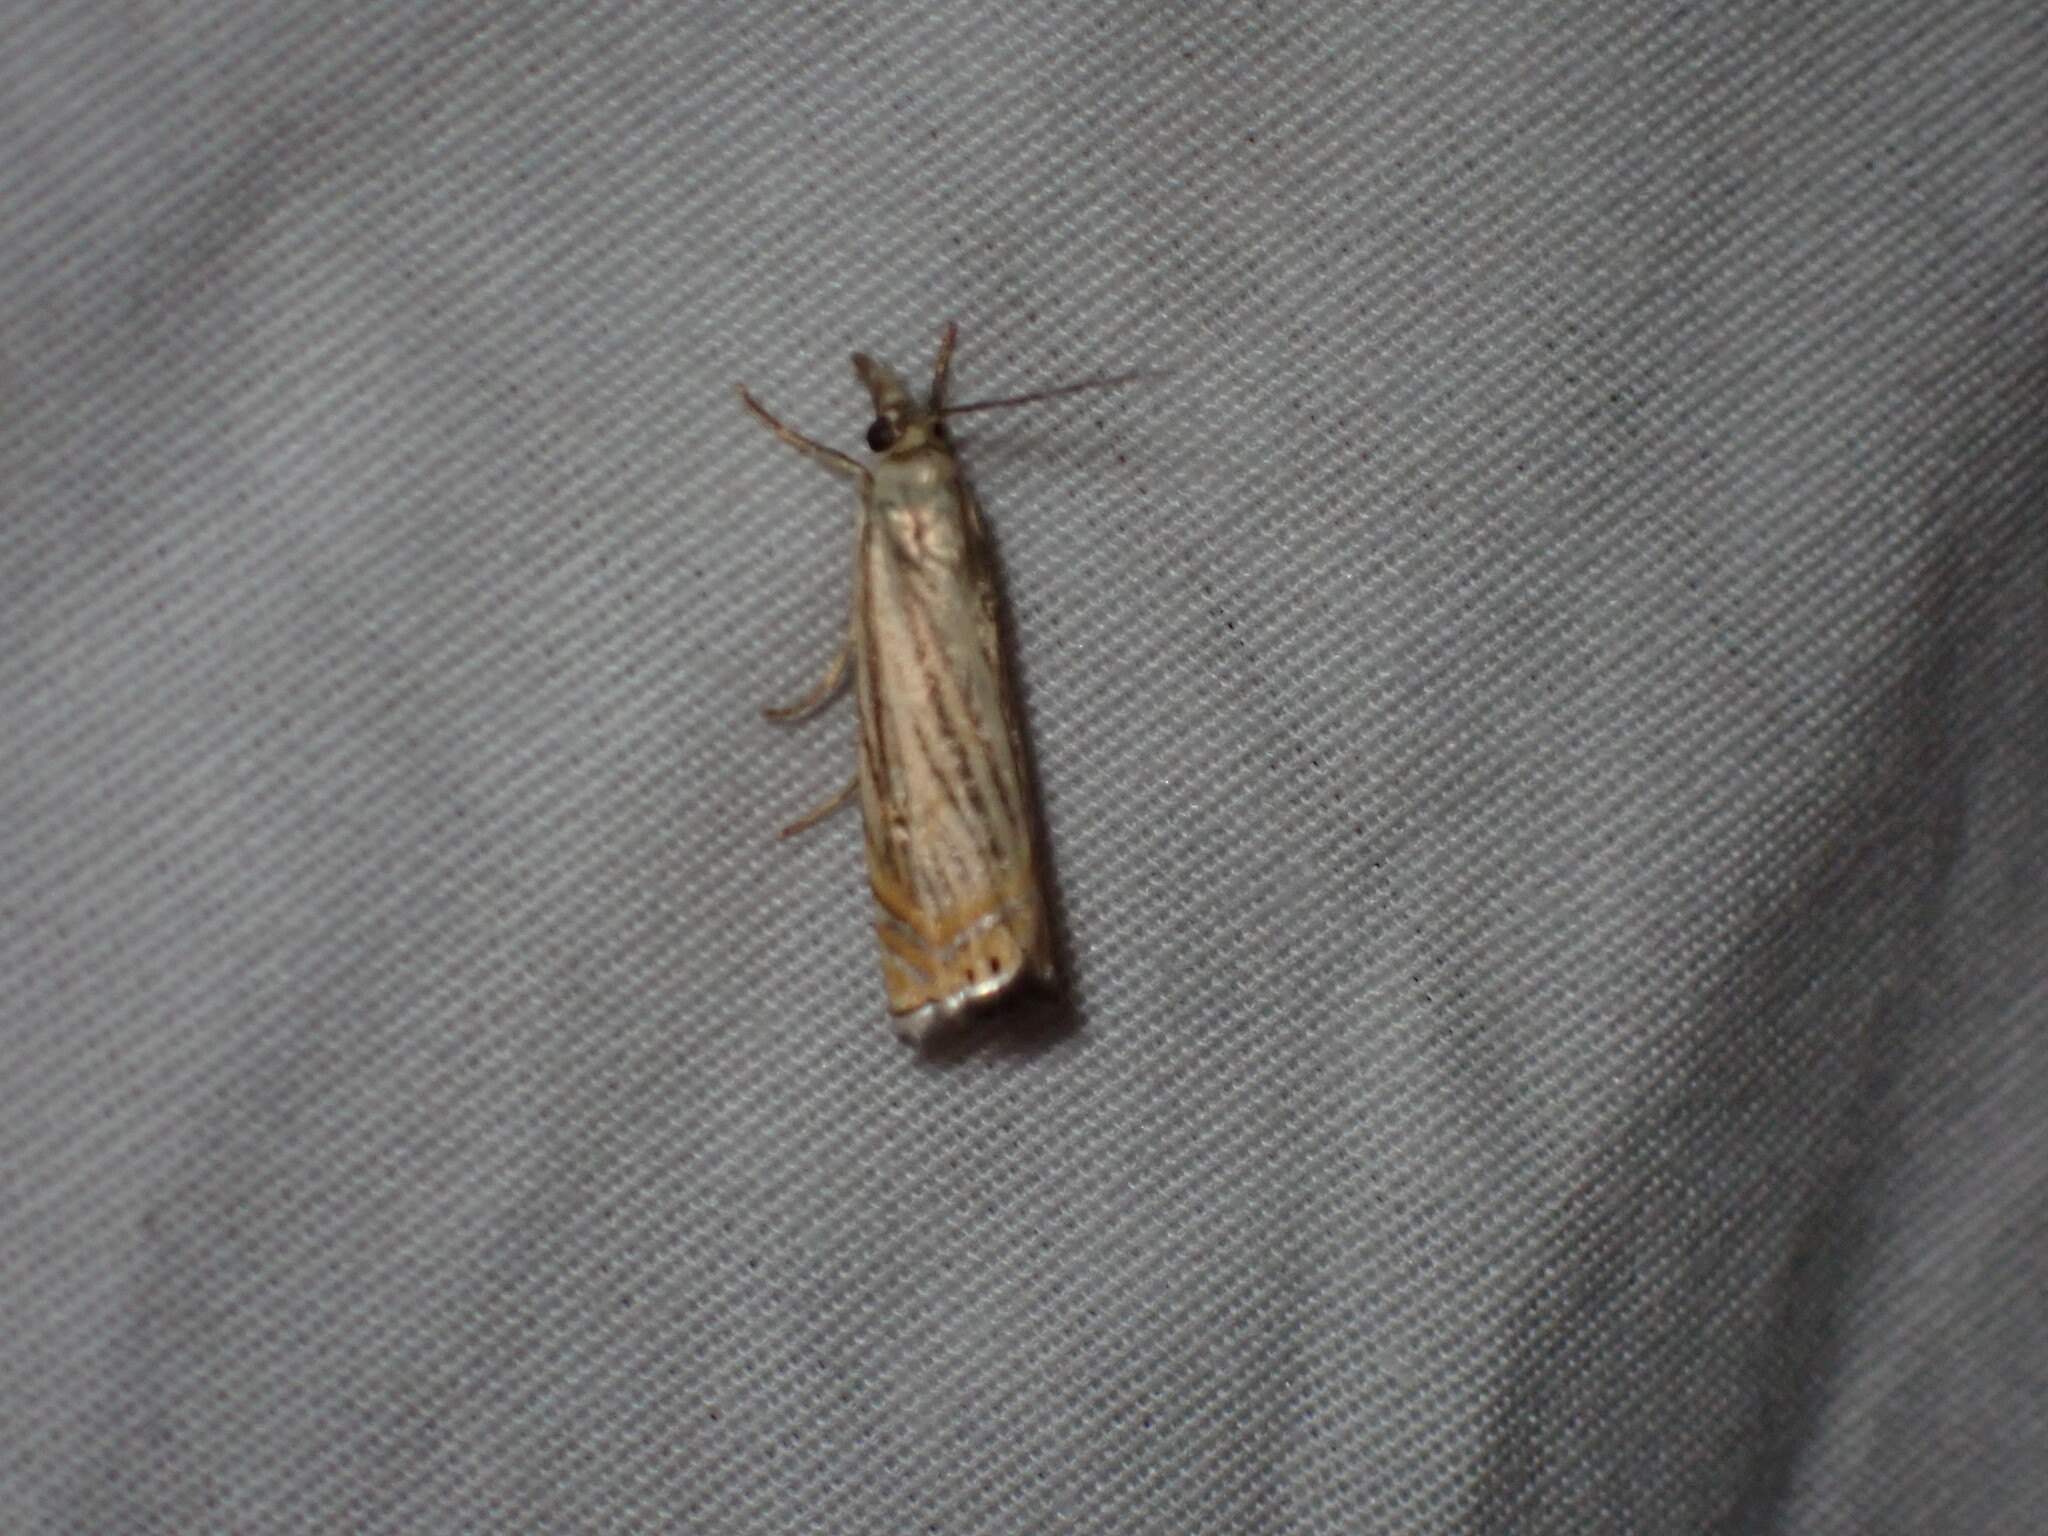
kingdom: Animalia
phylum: Arthropoda
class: Insecta
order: Lepidoptera
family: Crambidae
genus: Chrysoteuchia
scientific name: Chrysoteuchia topiarius
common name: Topiary grass-veneer
